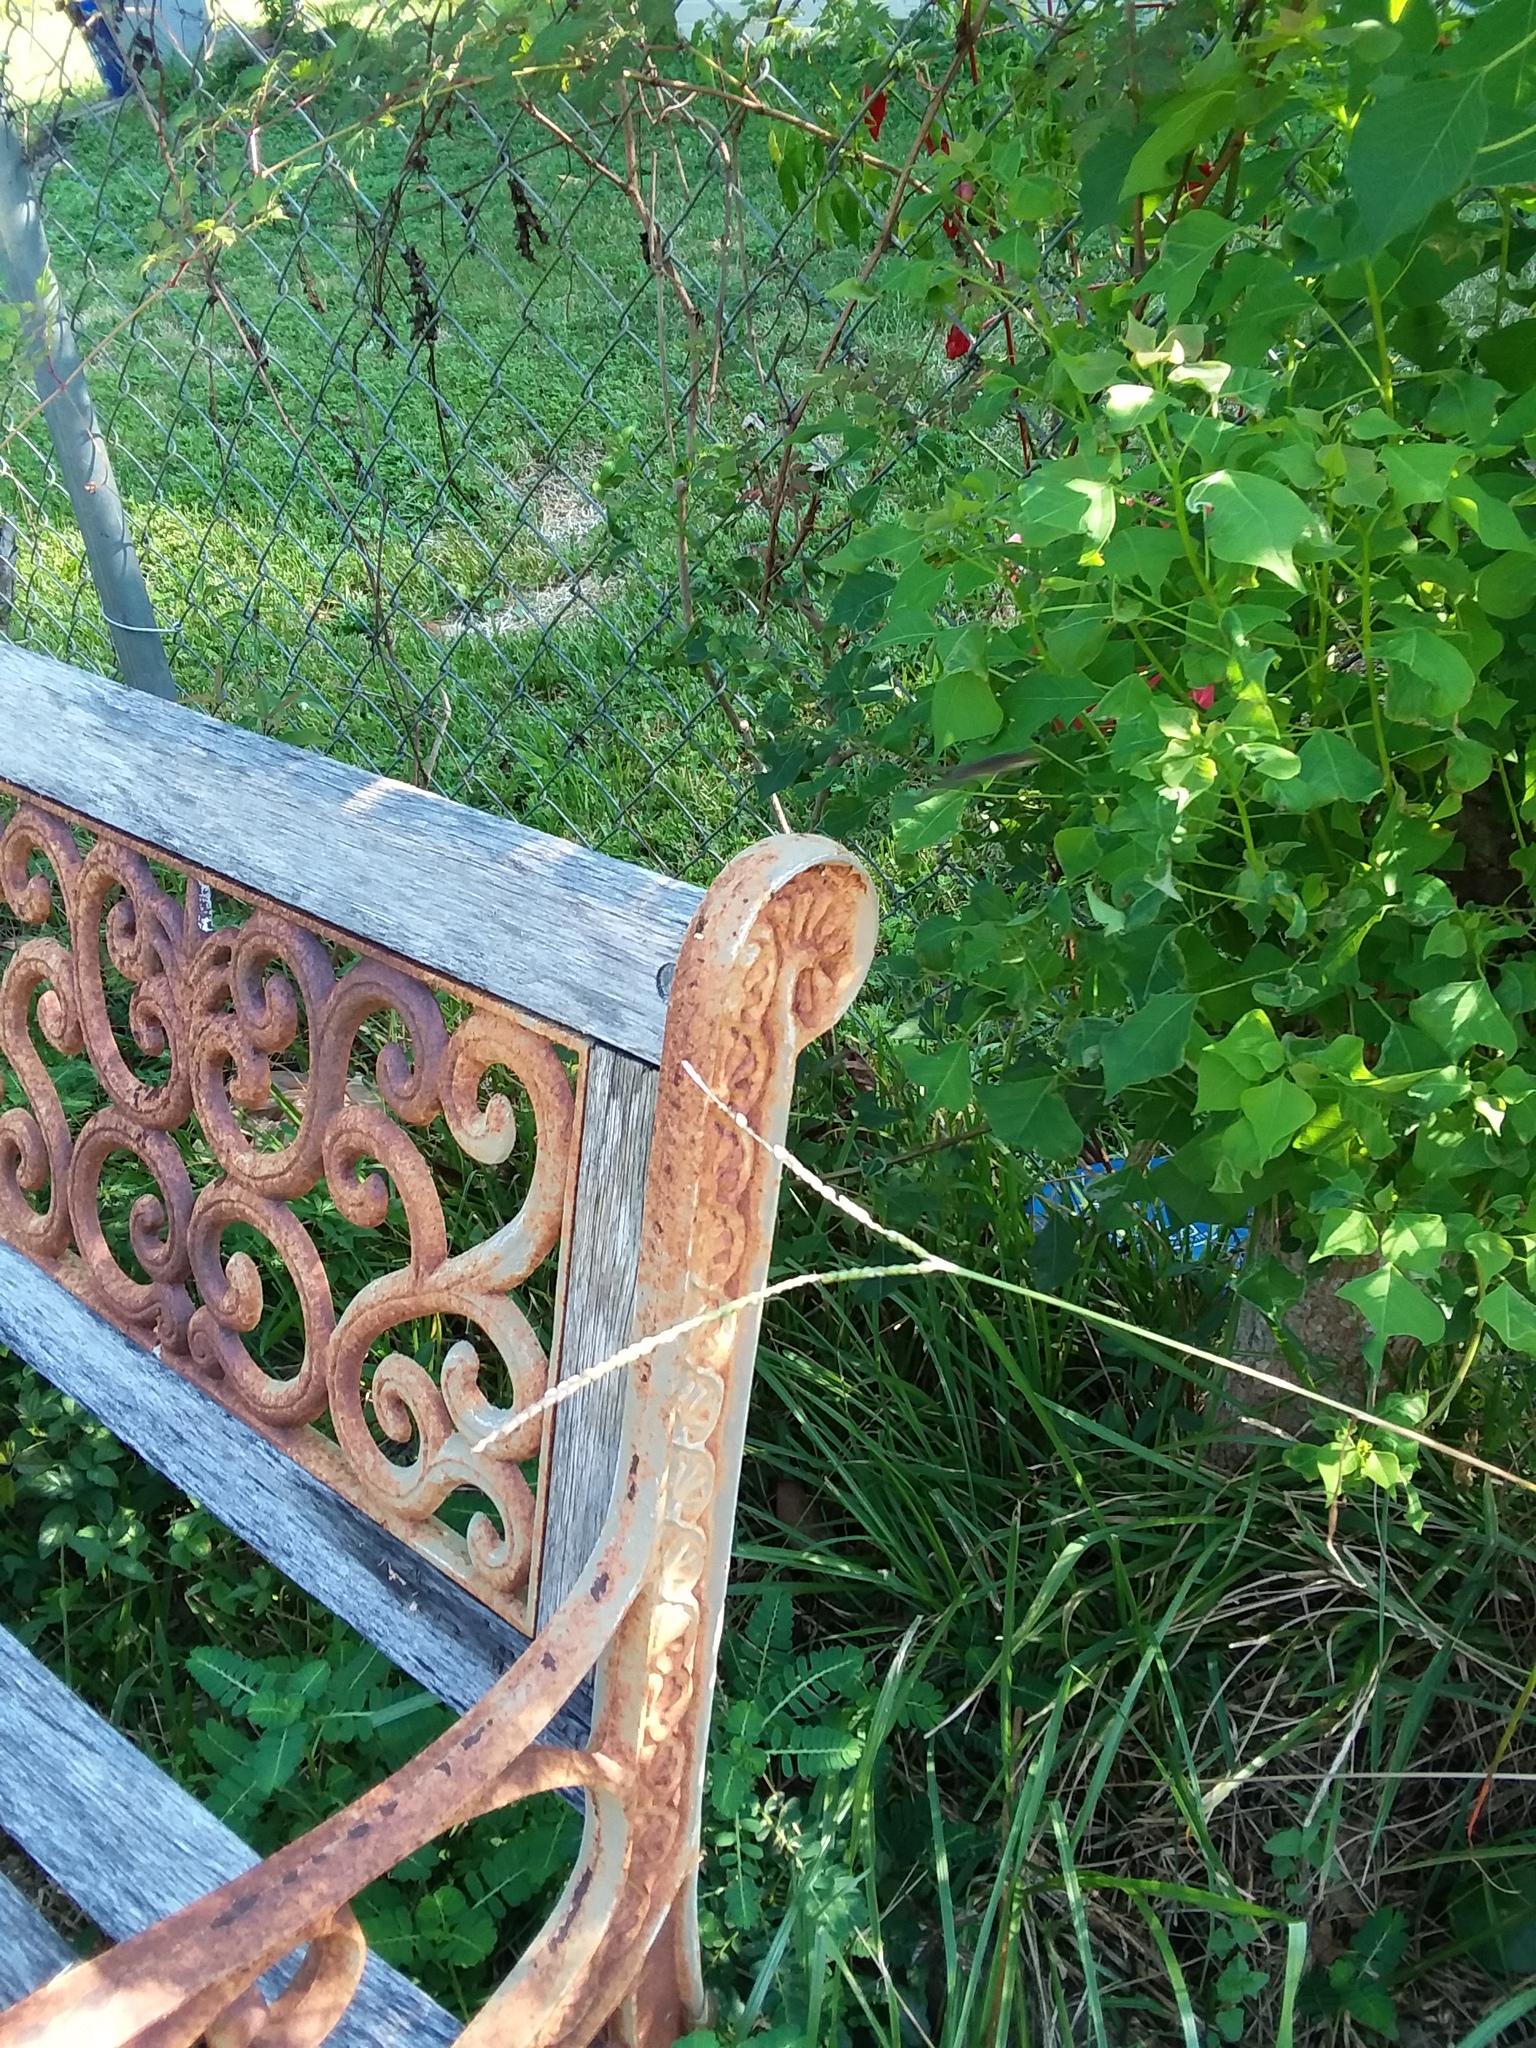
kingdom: Animalia
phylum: Chordata
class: Squamata
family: Dactyloidae
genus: Anolis
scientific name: Anolis carolinensis
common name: Green anole
